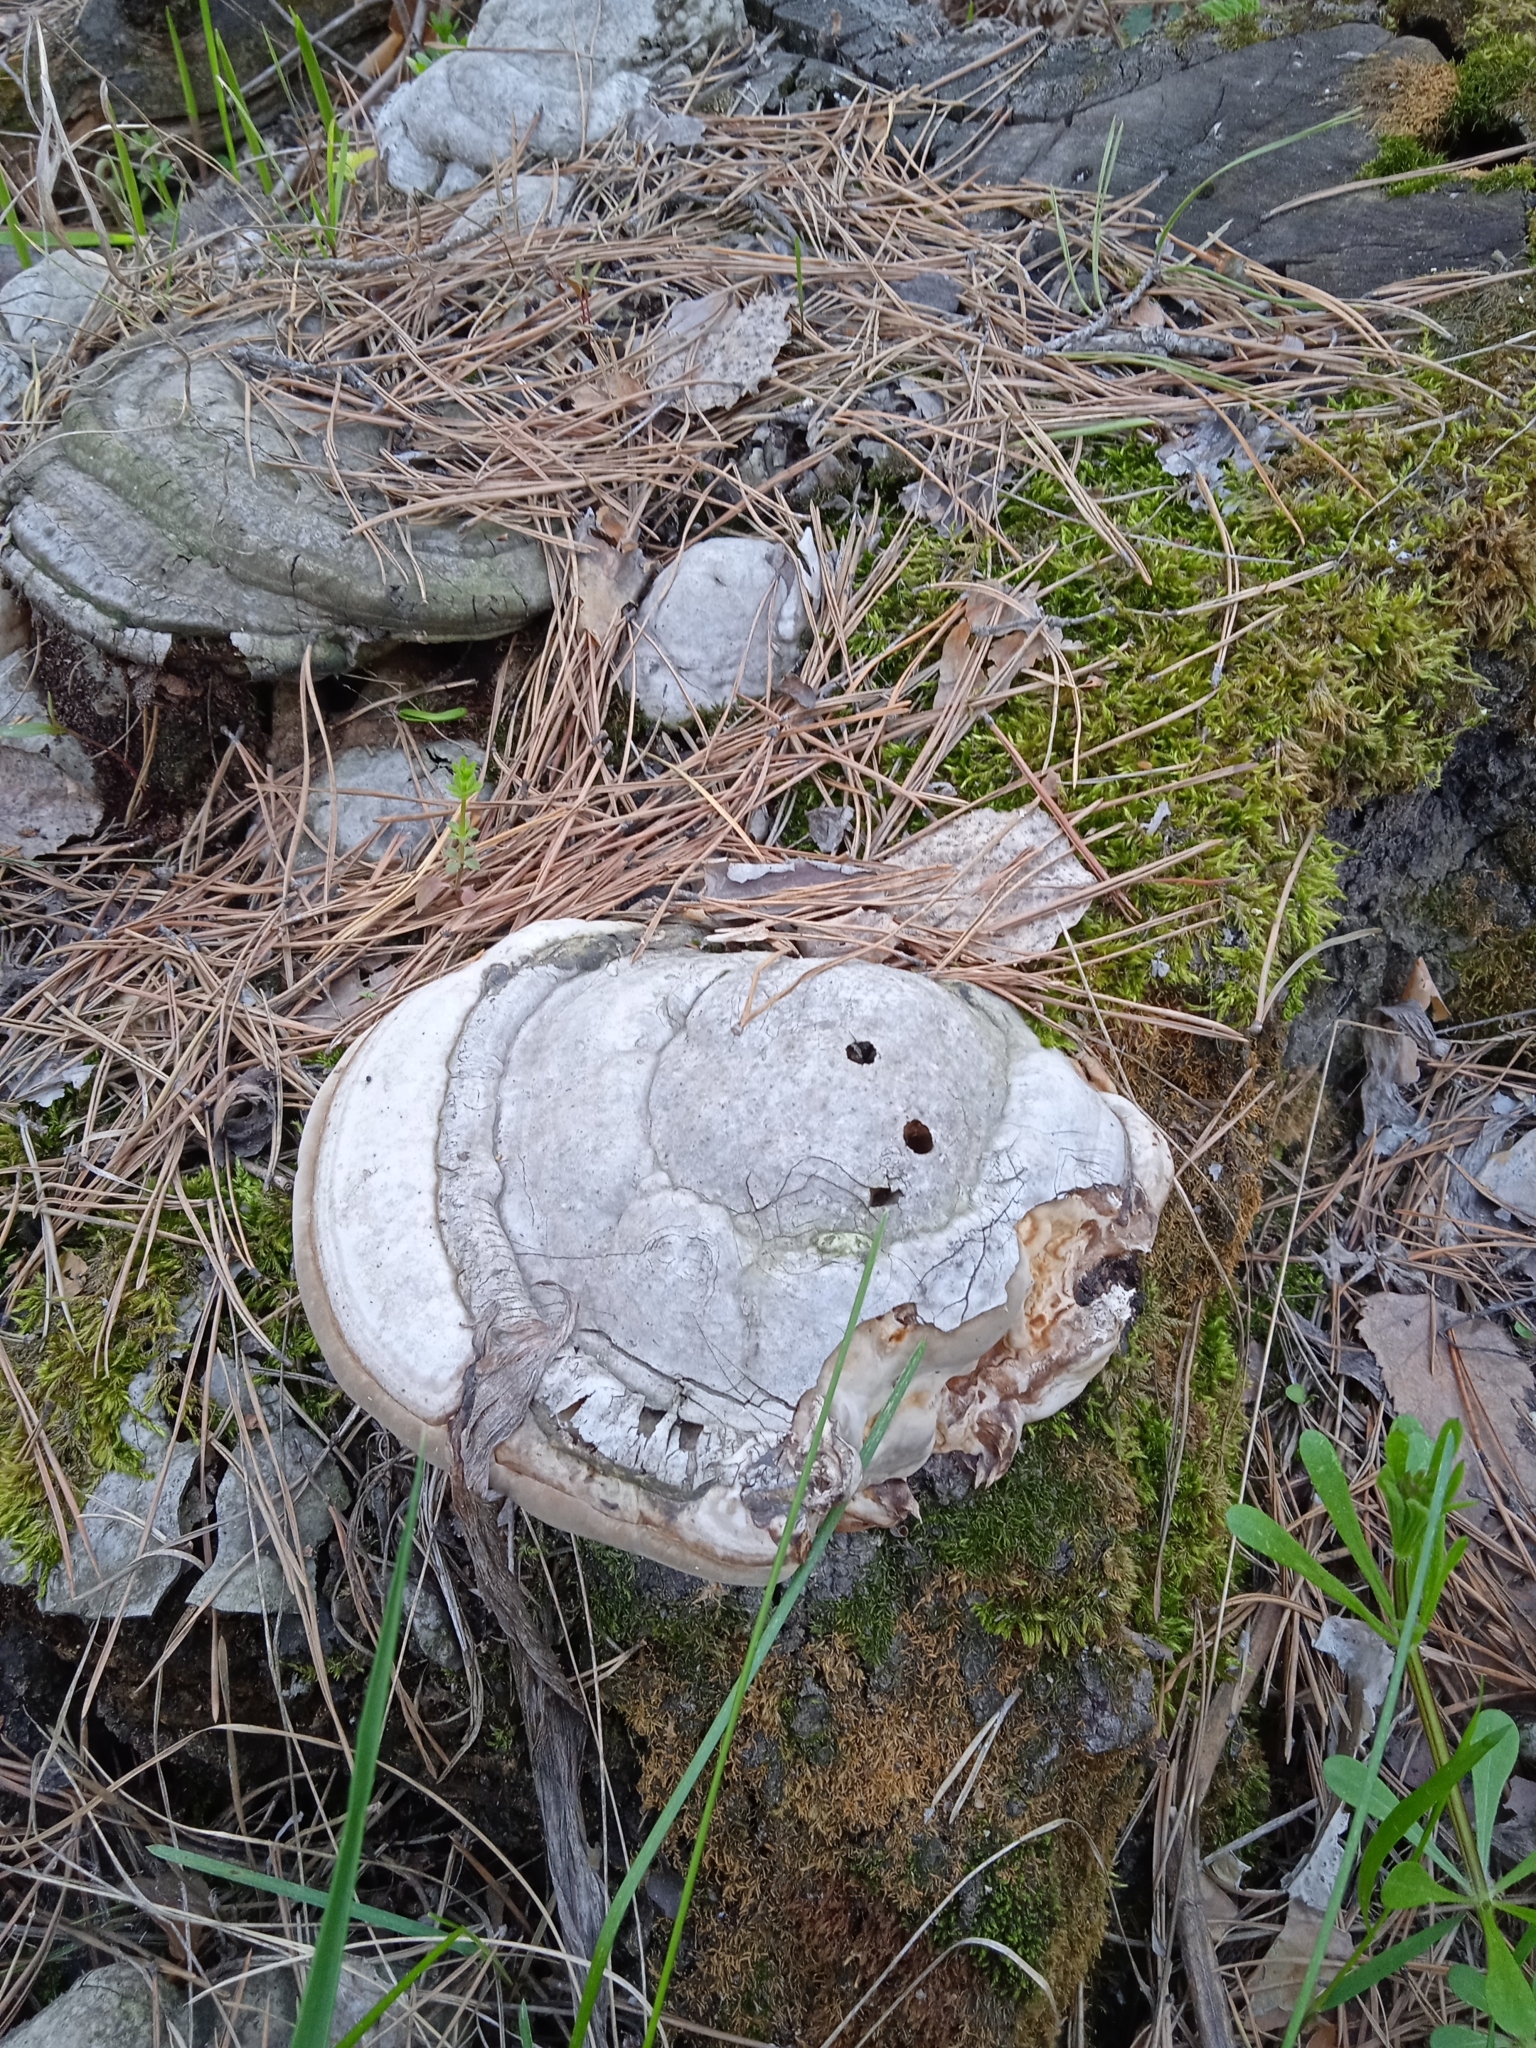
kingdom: Fungi
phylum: Basidiomycota
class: Agaricomycetes
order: Polyporales
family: Polyporaceae
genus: Fomes
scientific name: Fomes fomentarius
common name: Hoof fungus
